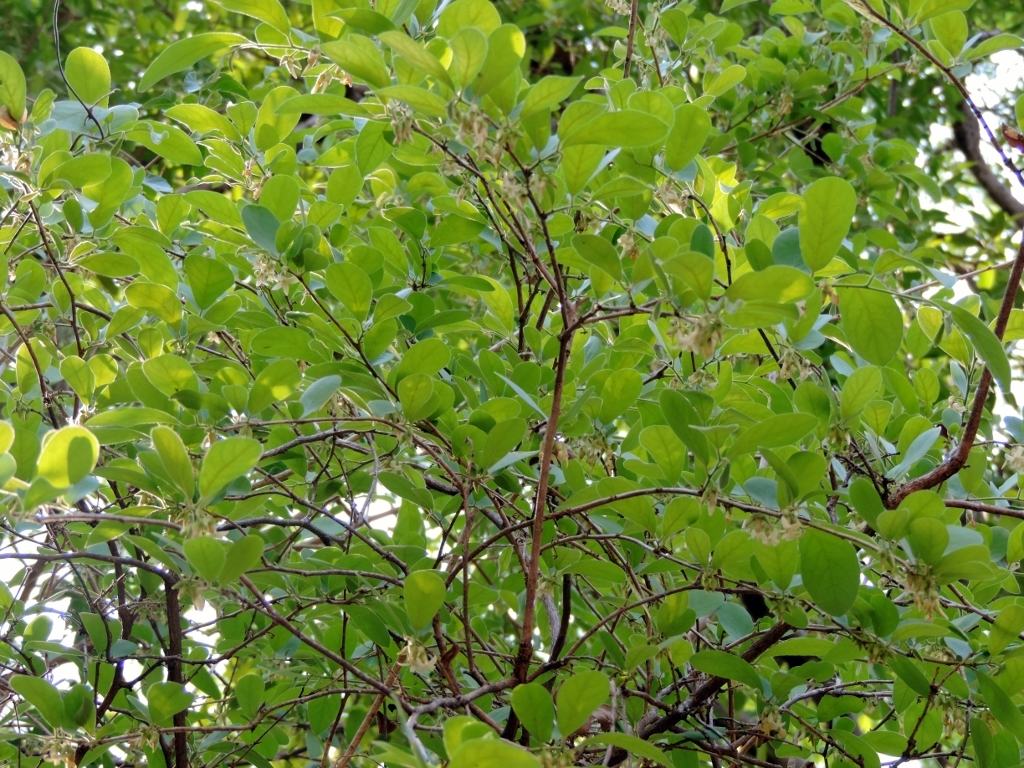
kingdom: Plantae
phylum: Tracheophyta
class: Magnoliopsida
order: Ericales
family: Ebenaceae
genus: Diospyros
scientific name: Diospyros senensis
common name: Spiny jackal berry
